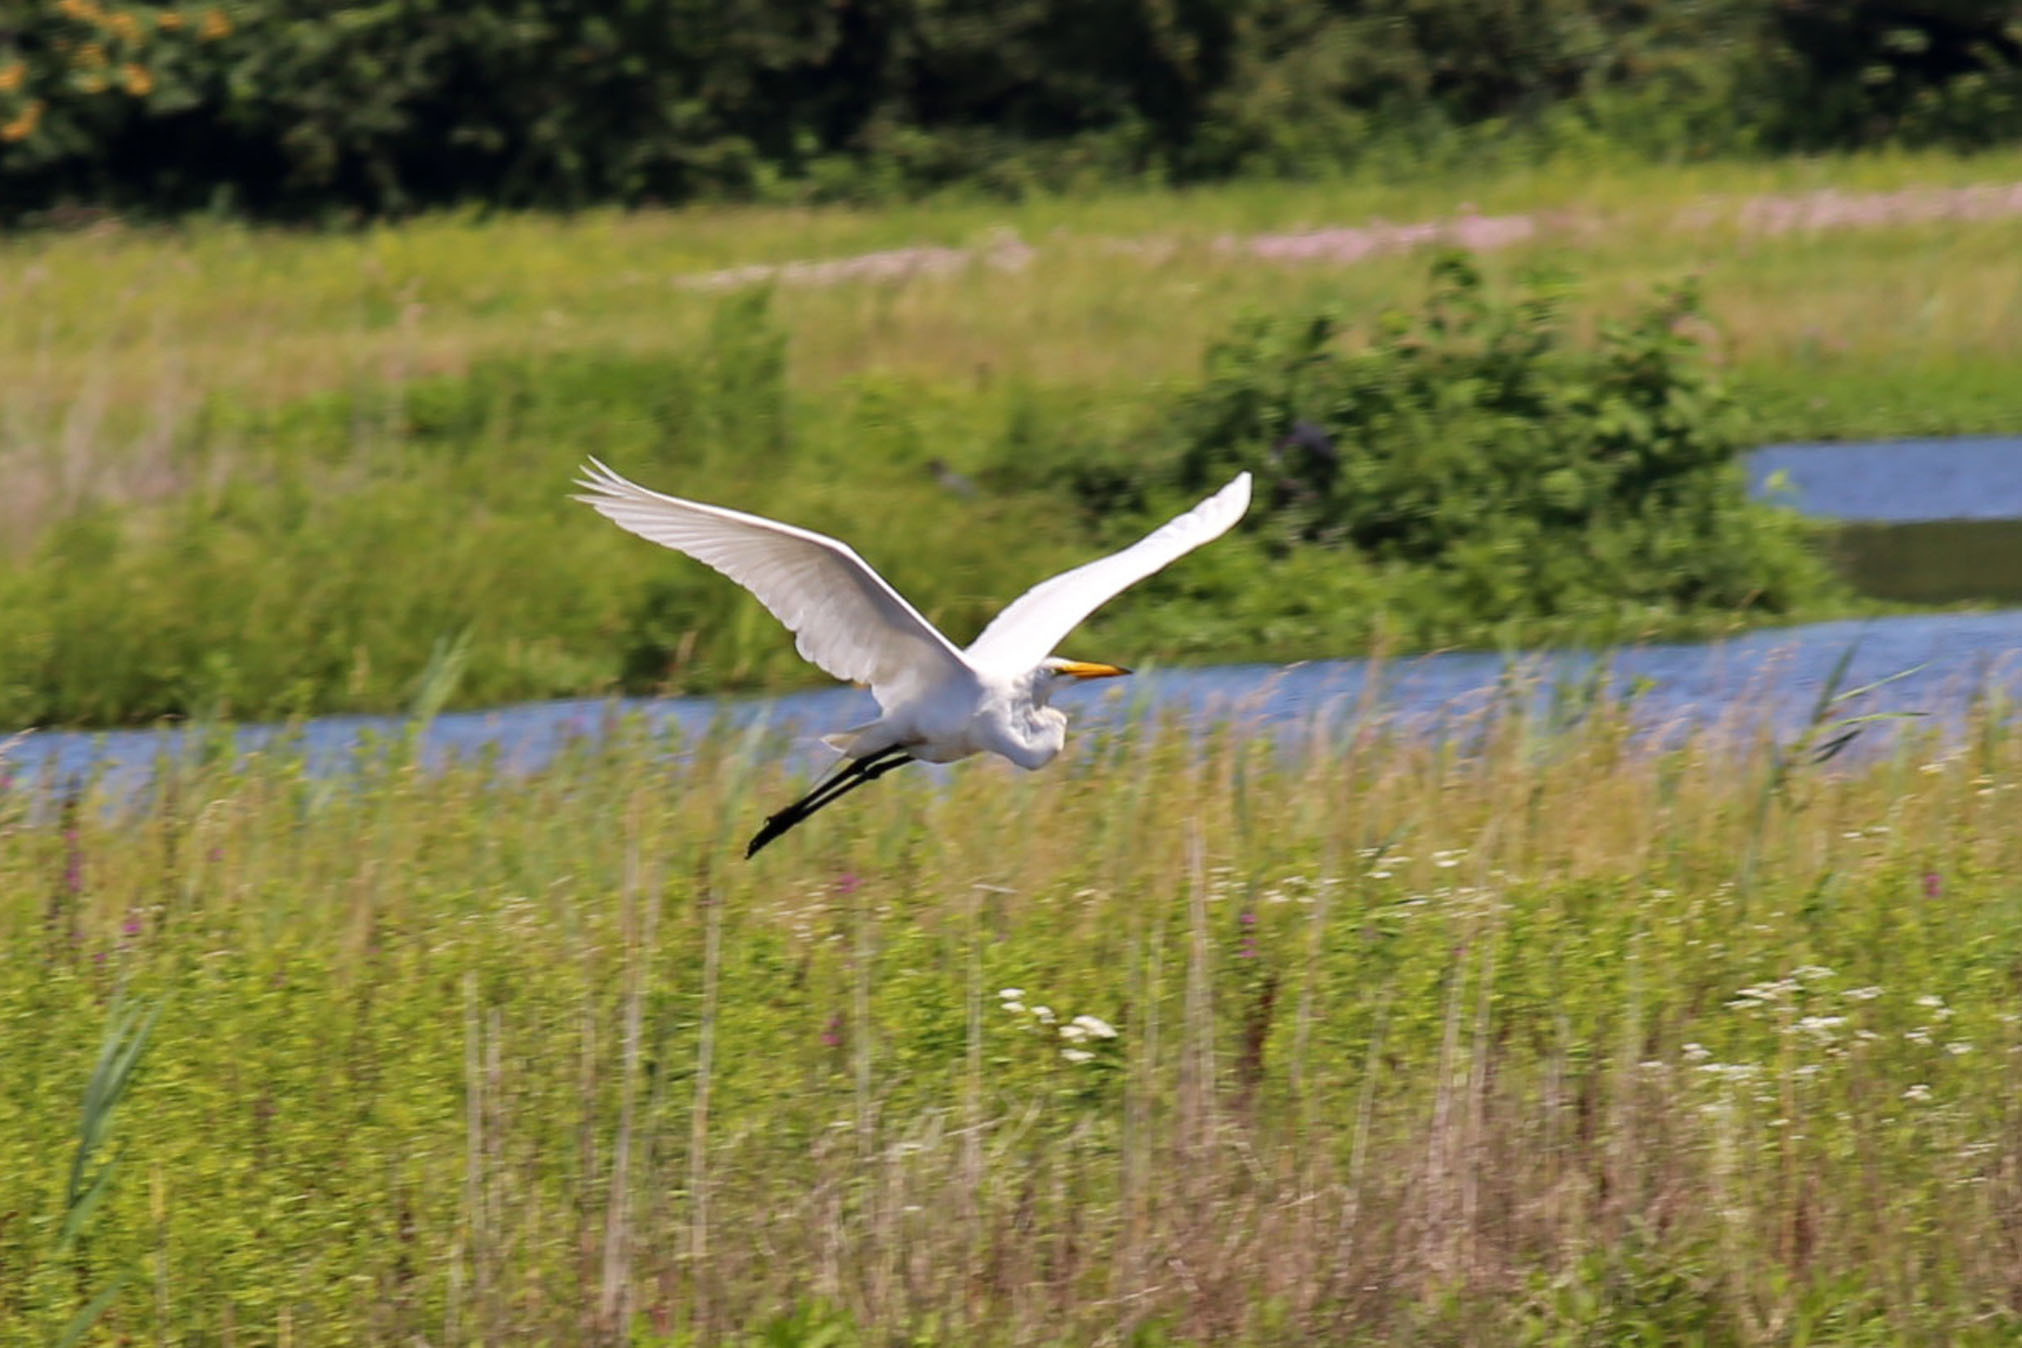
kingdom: Animalia
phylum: Chordata
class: Aves
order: Pelecaniformes
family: Ardeidae
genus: Ardea
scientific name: Ardea alba
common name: Great egret
